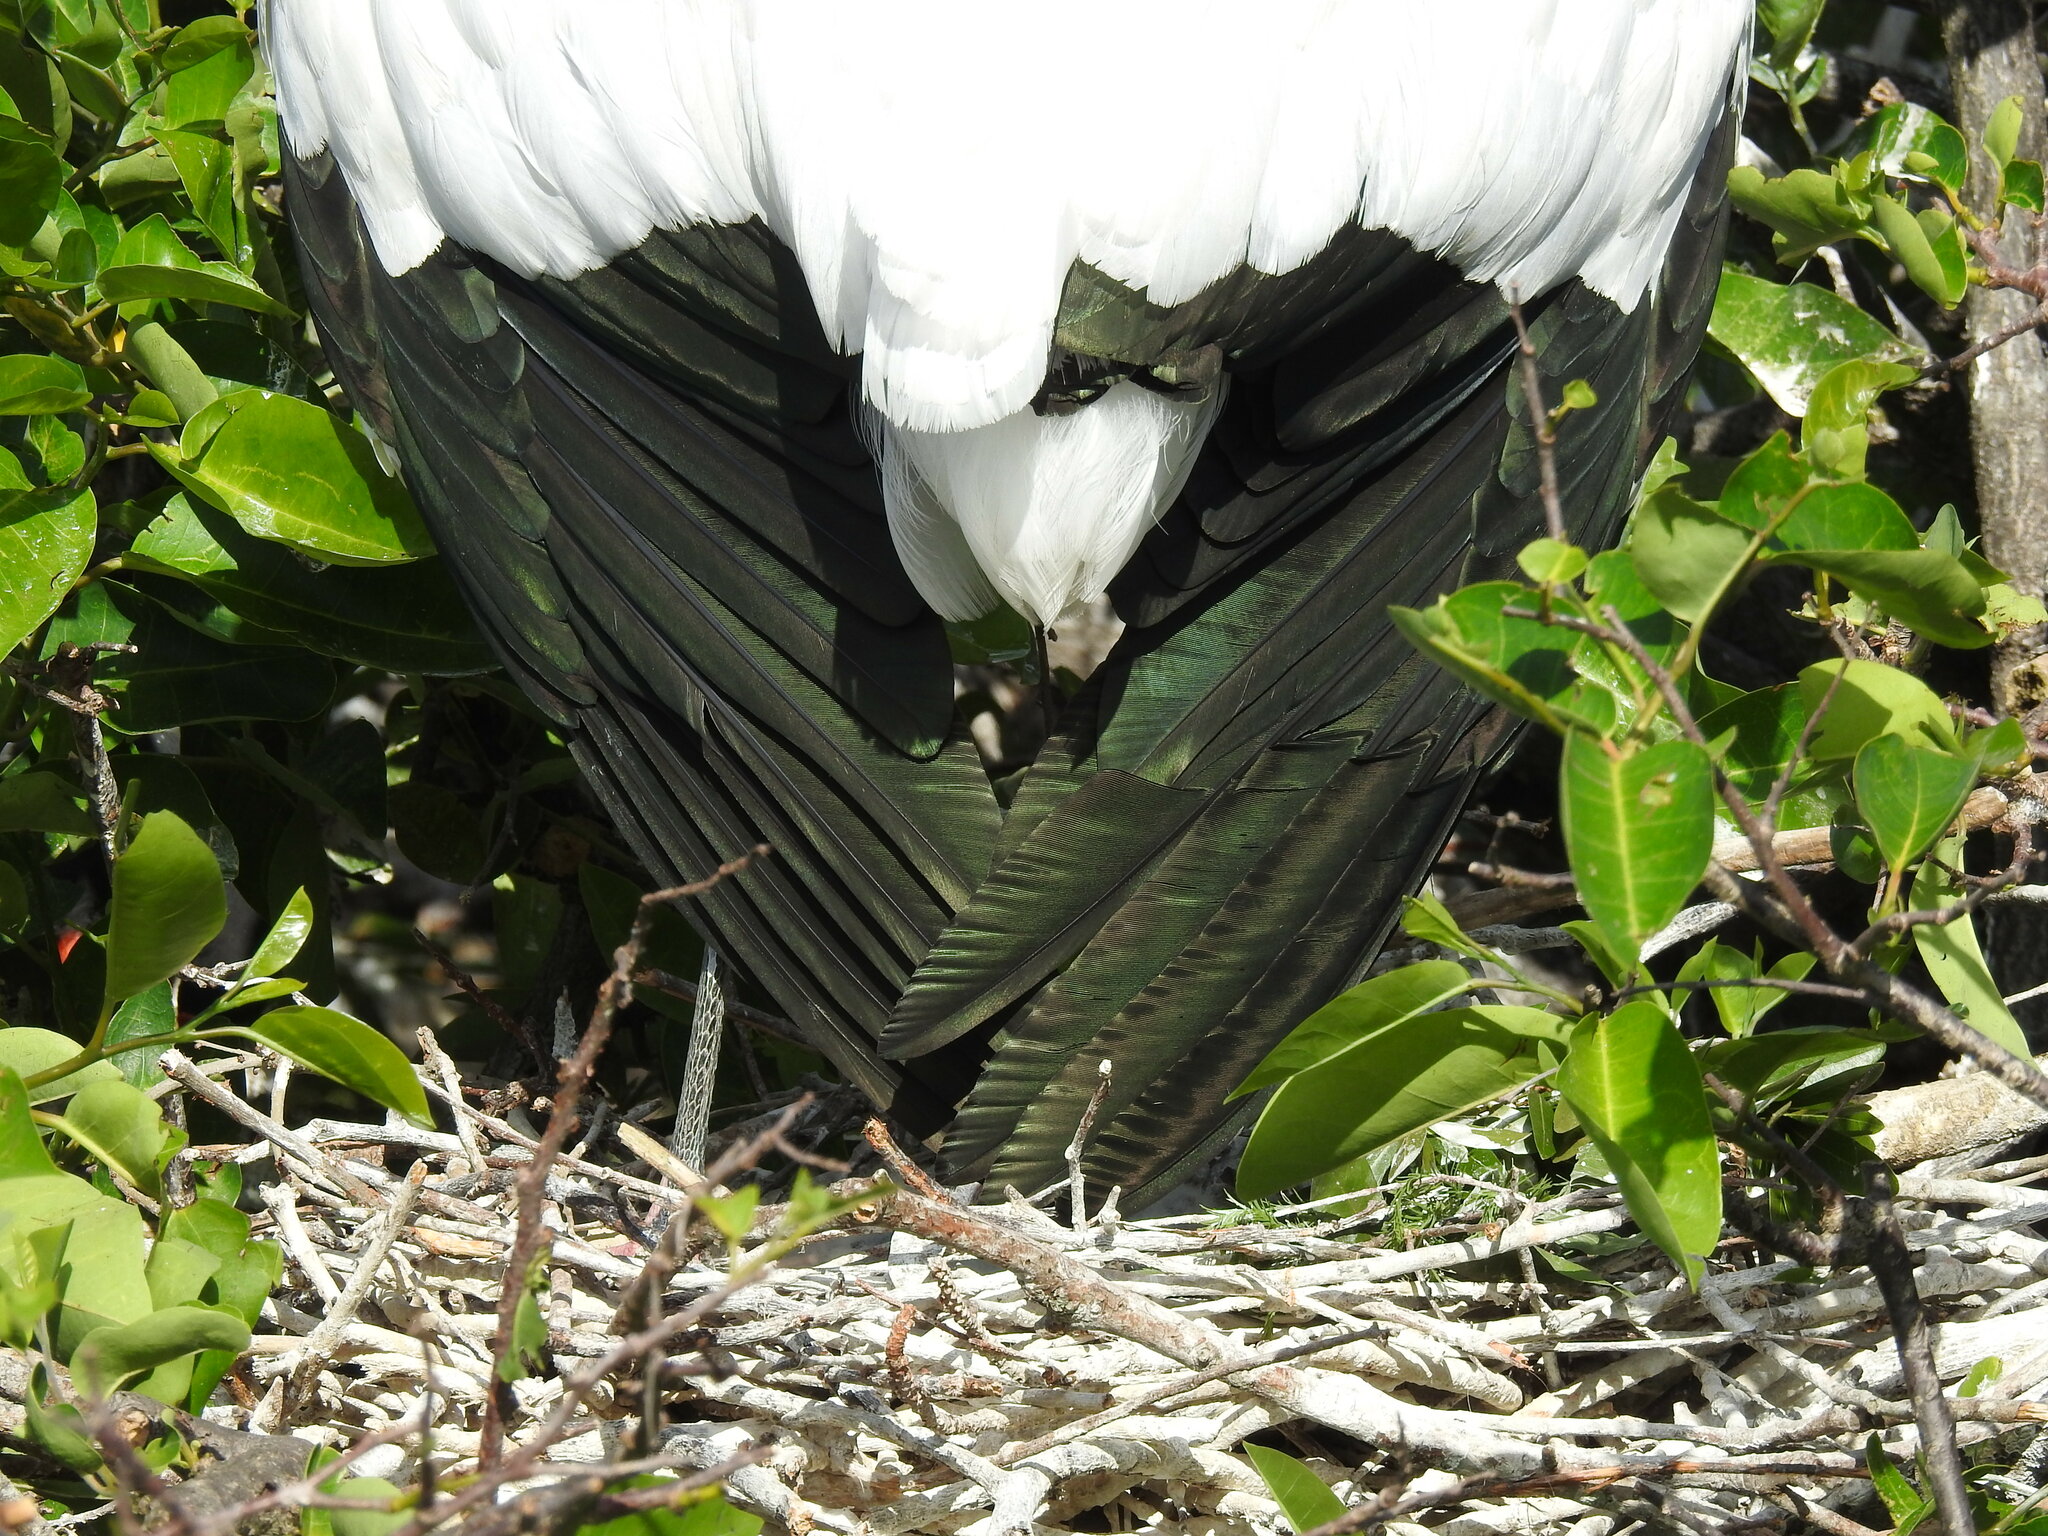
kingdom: Animalia
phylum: Chordata
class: Aves
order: Ciconiiformes
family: Ciconiidae
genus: Mycteria
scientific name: Mycteria americana
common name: Wood stork
